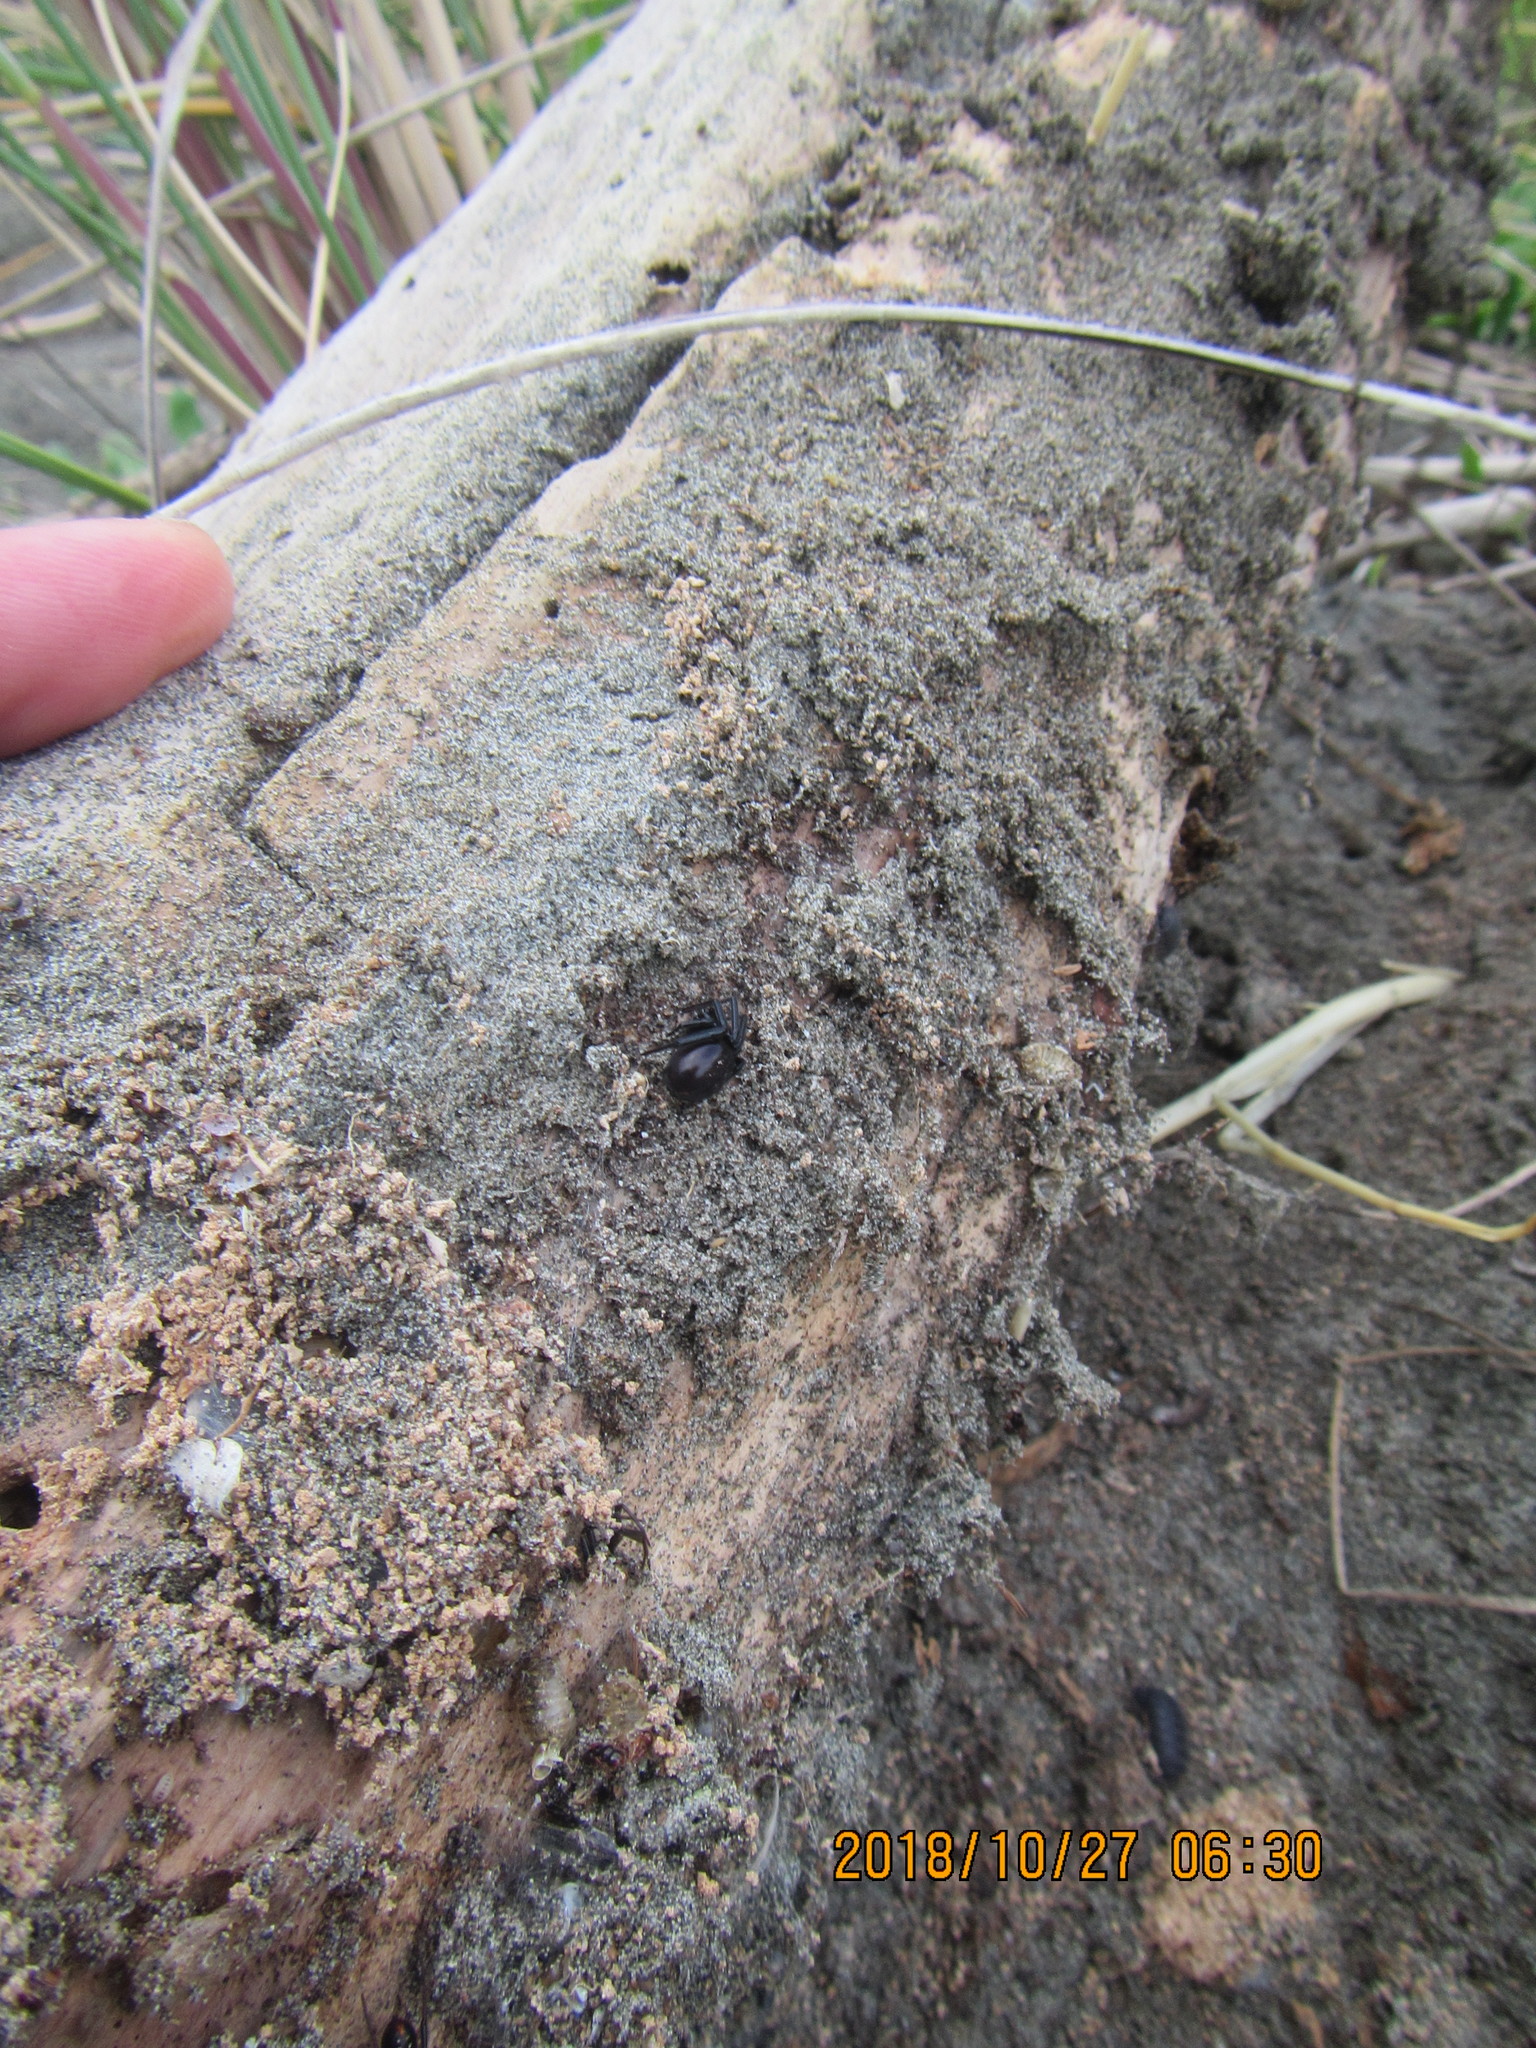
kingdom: Animalia
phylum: Arthropoda
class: Arachnida
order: Araneae
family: Theridiidae
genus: Steatoda
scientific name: Steatoda capensis
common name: Cobweb weaver
